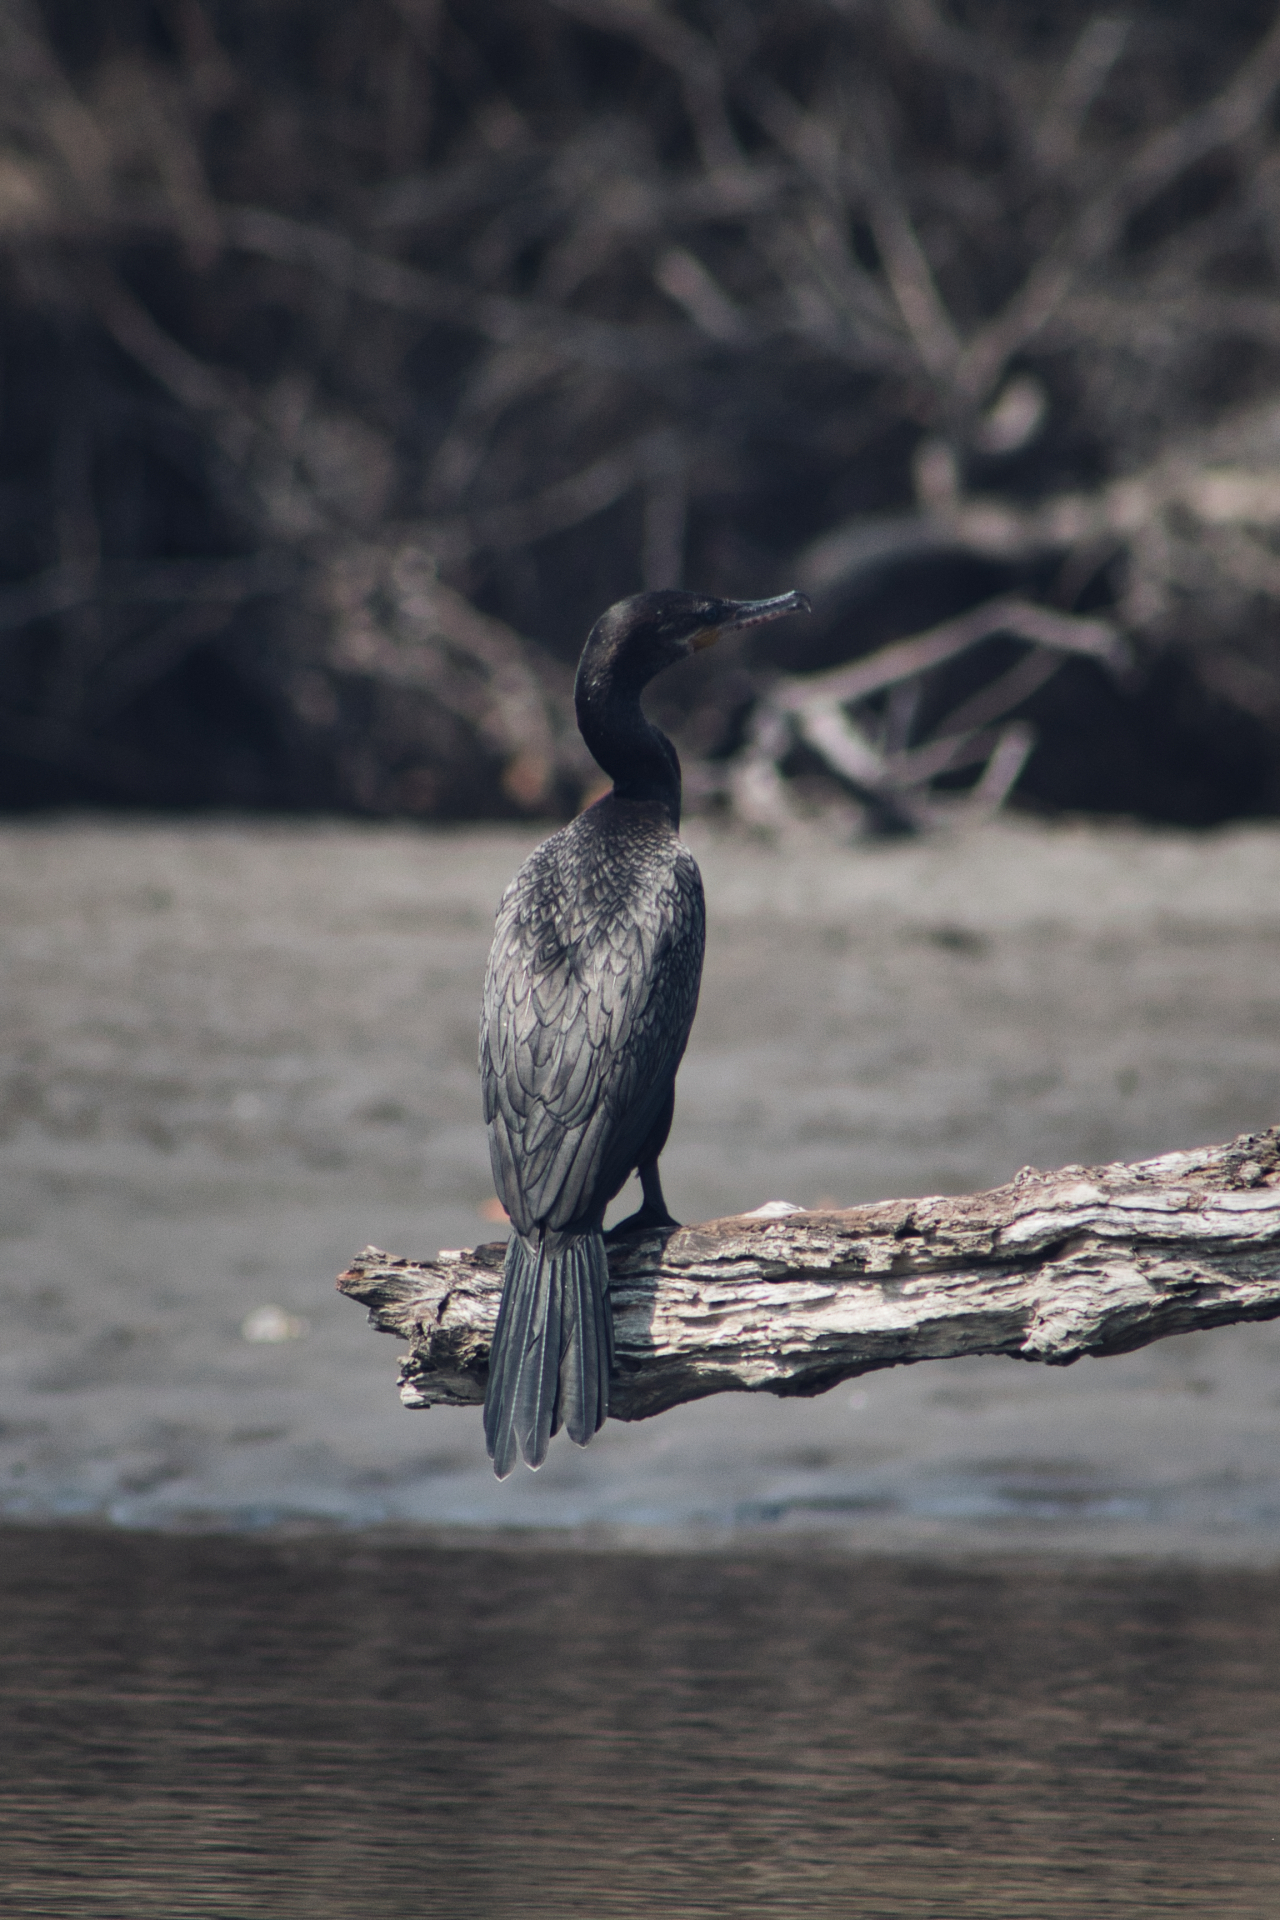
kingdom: Animalia
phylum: Chordata
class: Aves
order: Suliformes
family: Phalacrocoracidae
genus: Phalacrocorax
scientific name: Phalacrocorax brasilianus
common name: Neotropic cormorant
